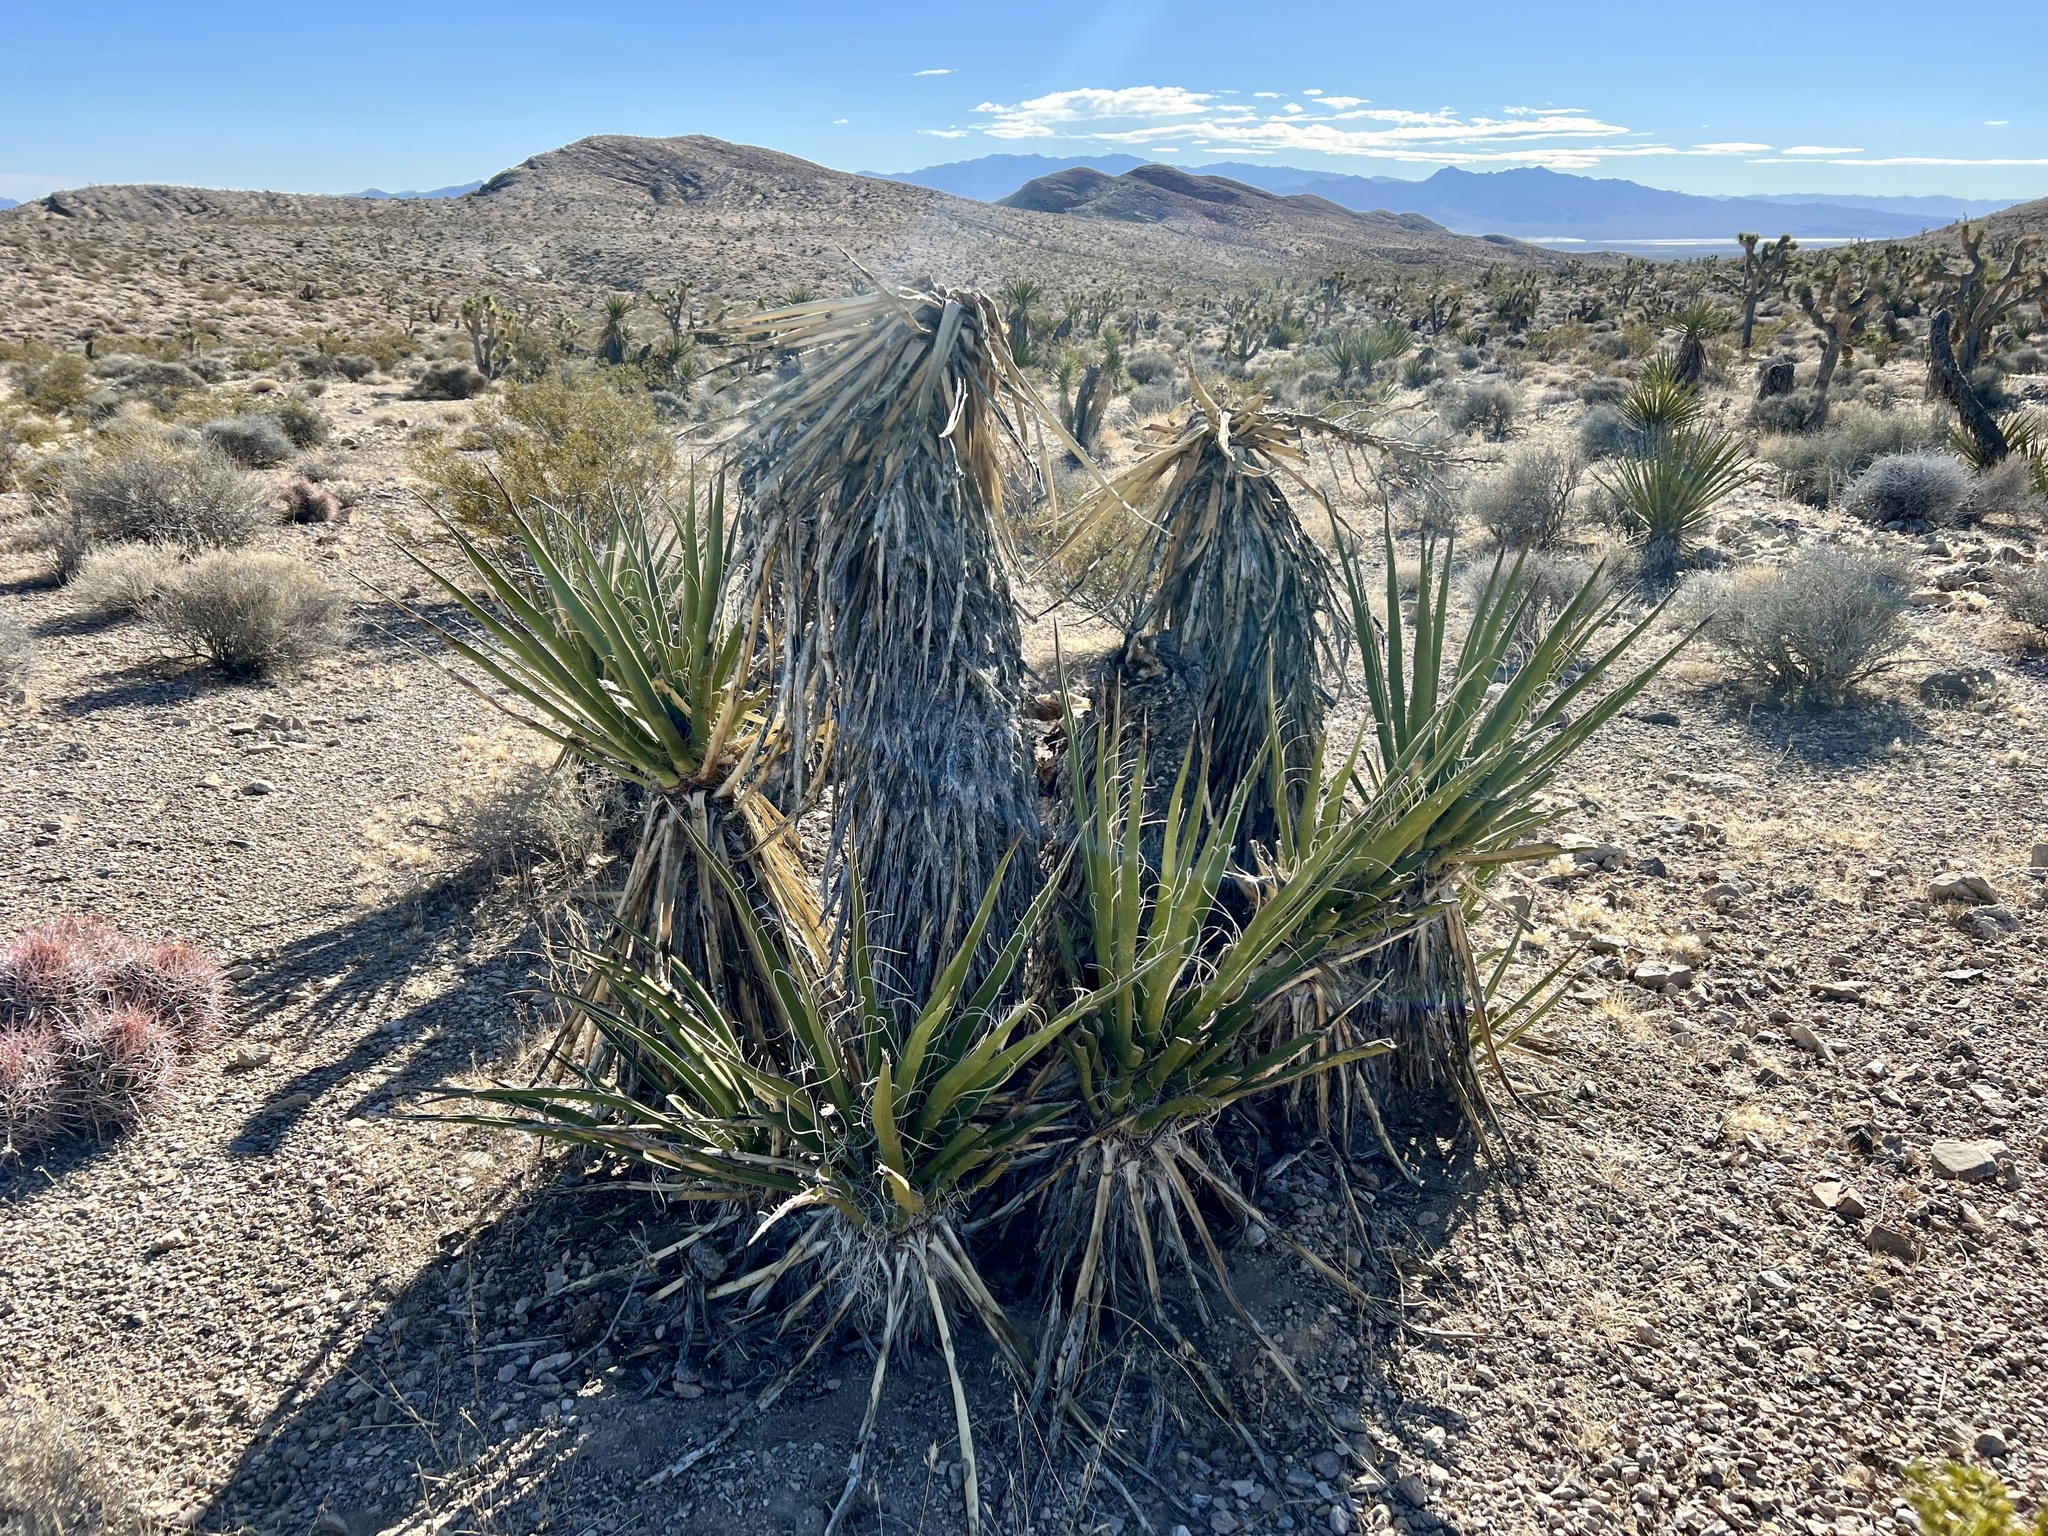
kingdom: Plantae
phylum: Tracheophyta
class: Liliopsida
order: Asparagales
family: Asparagaceae
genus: Yucca
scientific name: Yucca schidigera
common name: Mojave yucca
